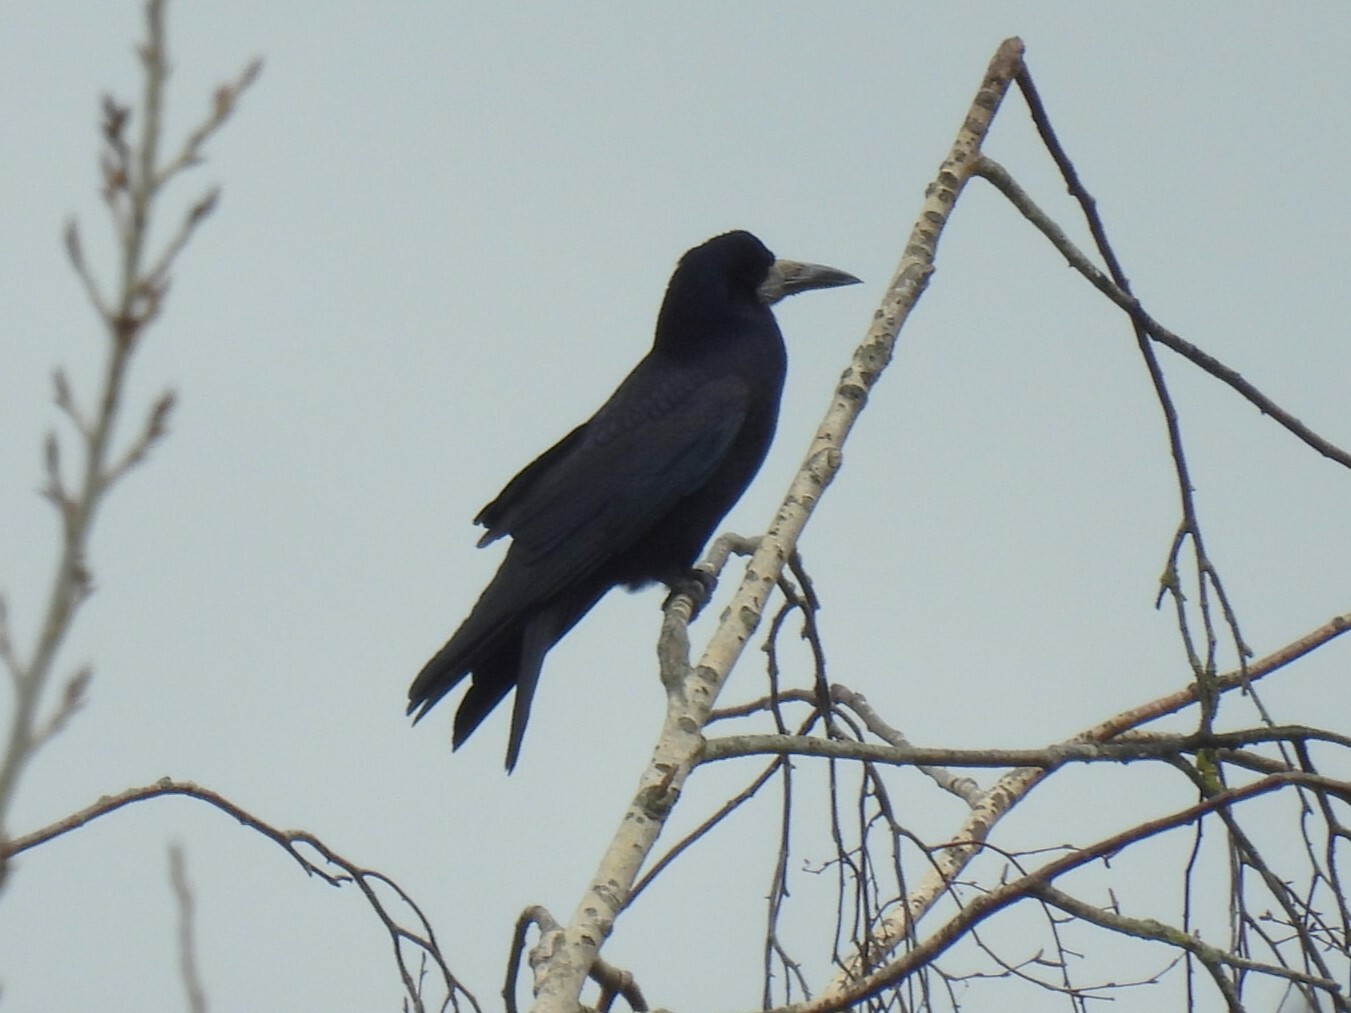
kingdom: Animalia
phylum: Chordata
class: Aves
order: Passeriformes
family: Corvidae
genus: Corvus
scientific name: Corvus frugilegus
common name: Rook
